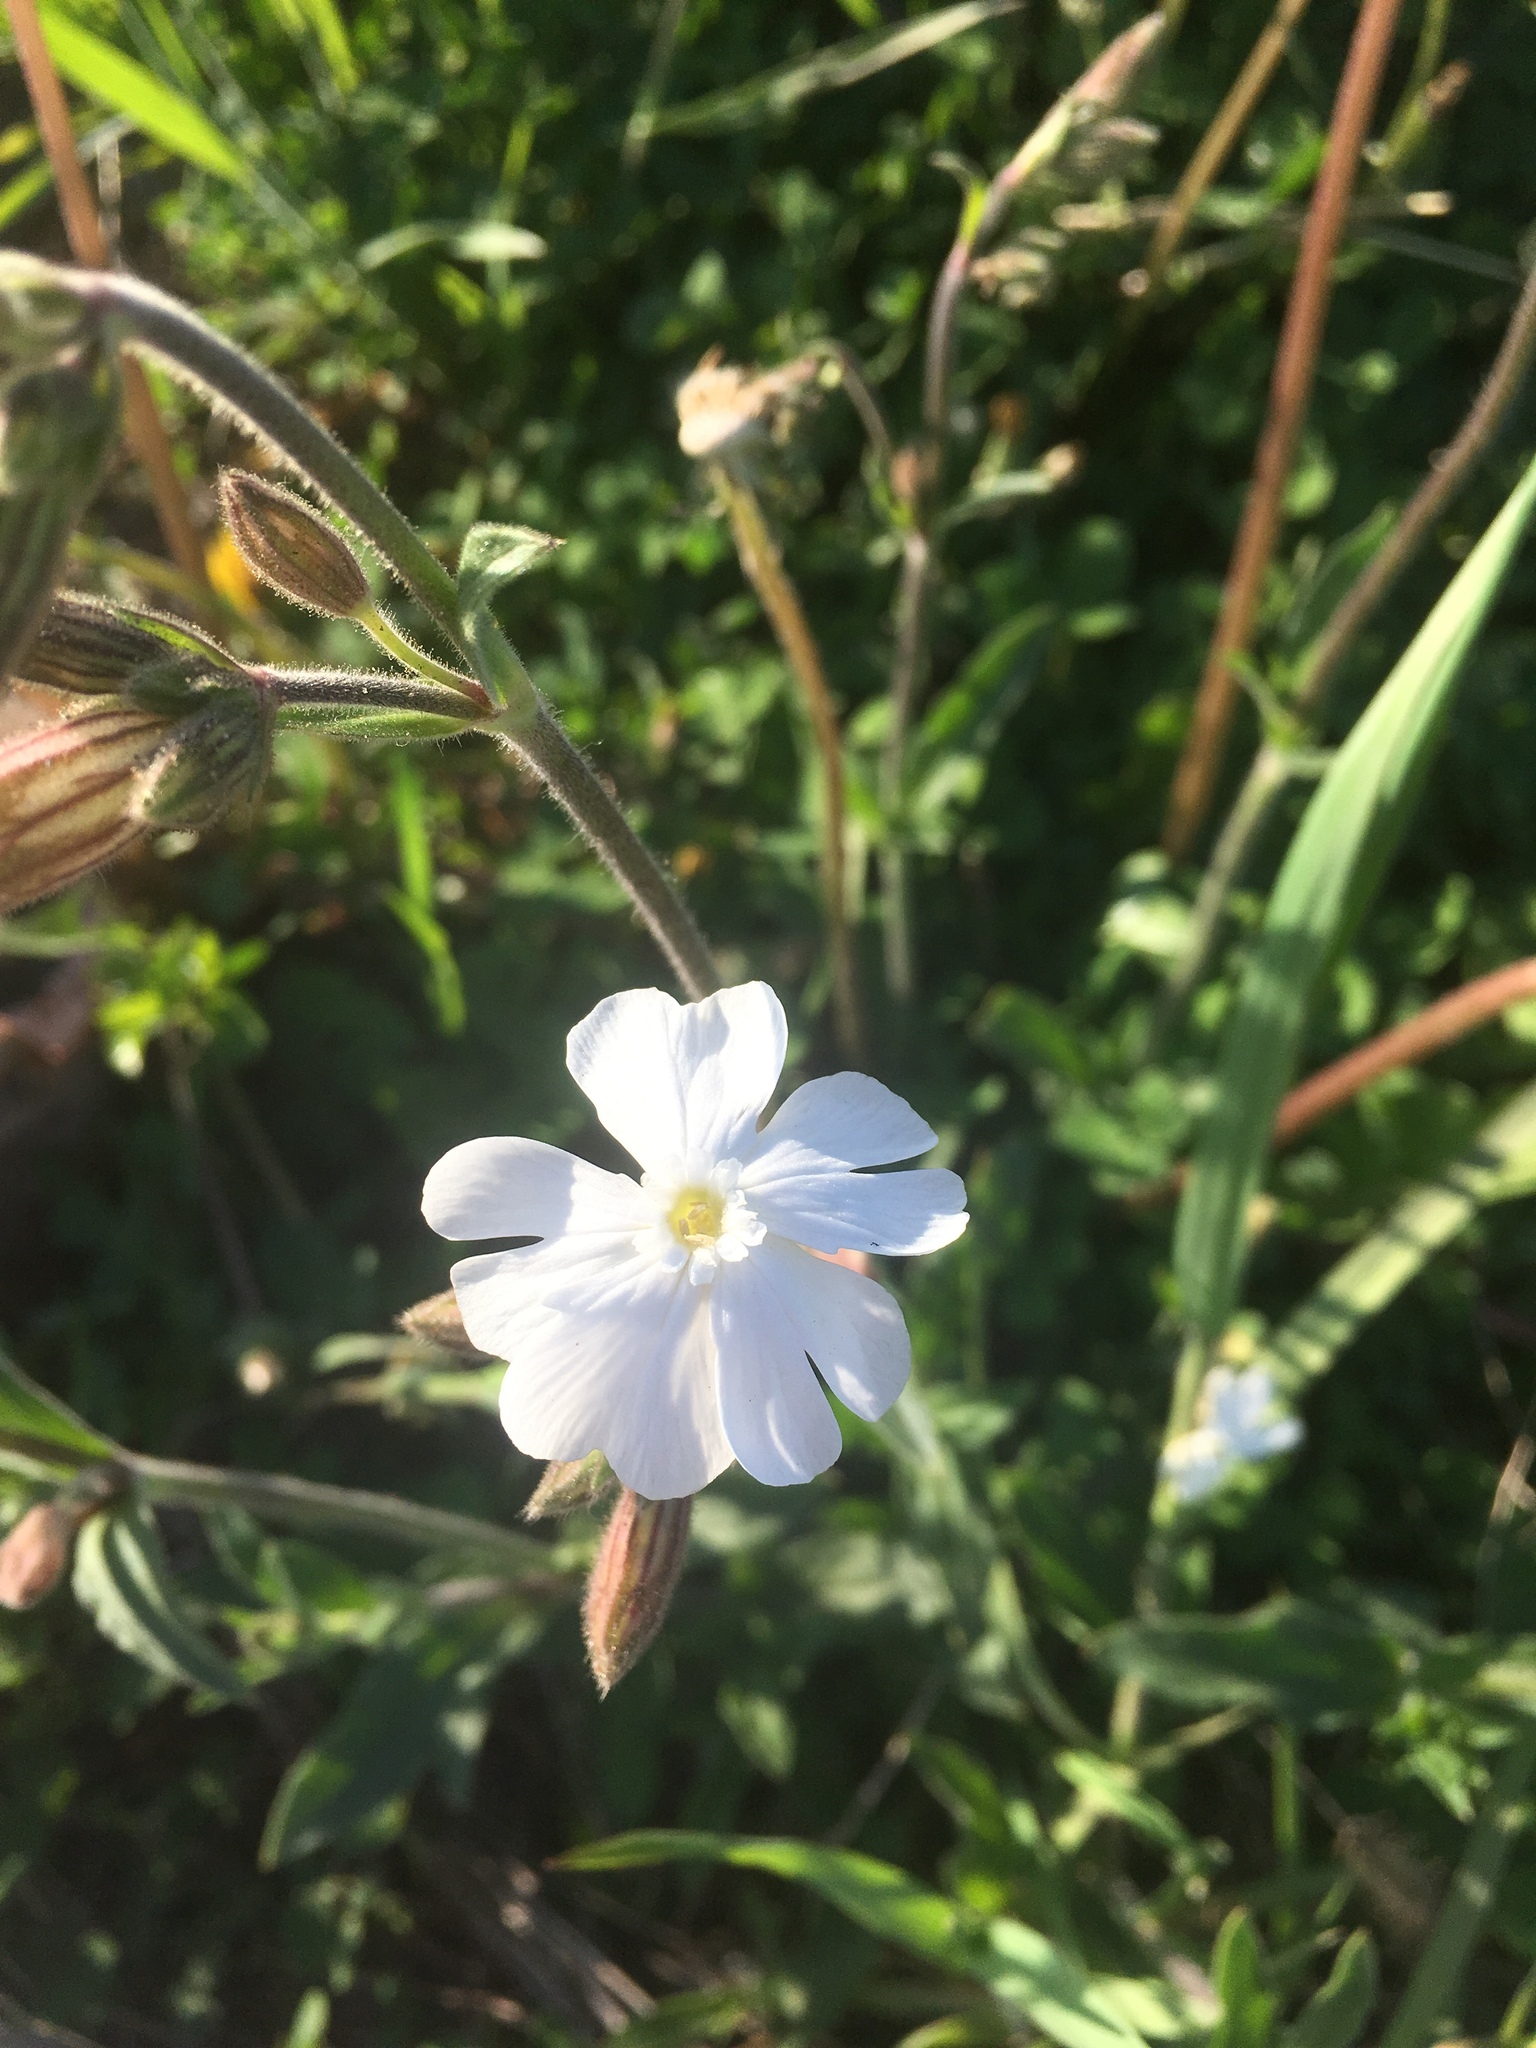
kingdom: Plantae
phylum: Tracheophyta
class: Magnoliopsida
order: Caryophyllales
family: Caryophyllaceae
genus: Silene
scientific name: Silene latifolia
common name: White campion
